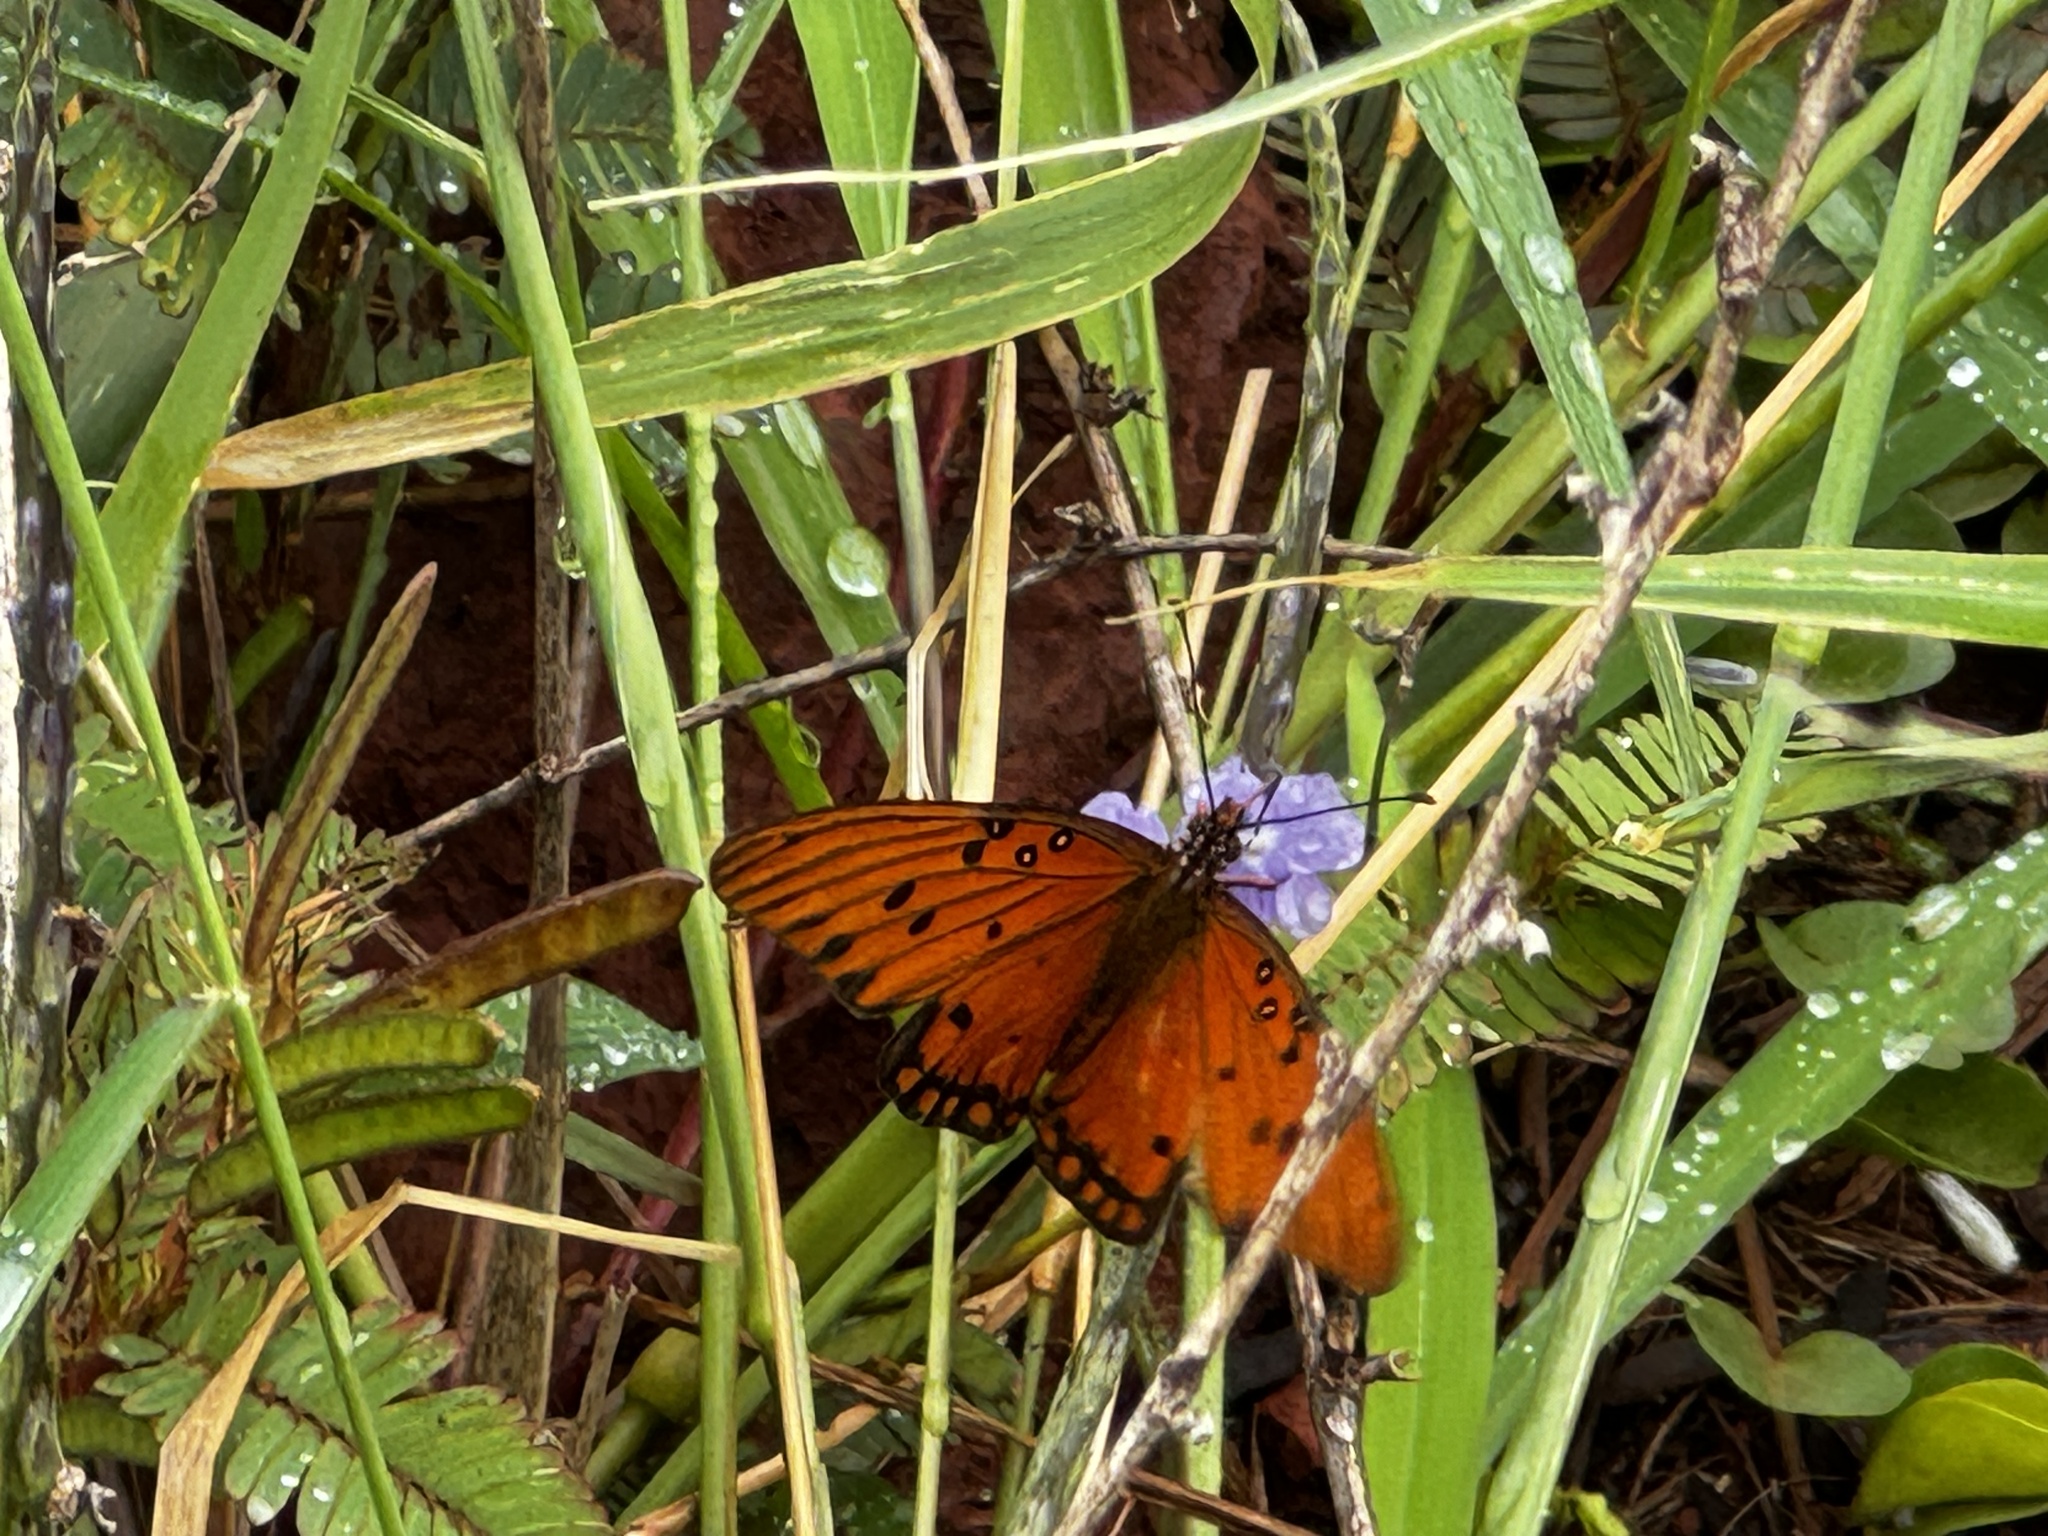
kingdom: Animalia
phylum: Arthropoda
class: Insecta
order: Lepidoptera
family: Nymphalidae
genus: Dione
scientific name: Dione vanillae
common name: Gulf fritillary
